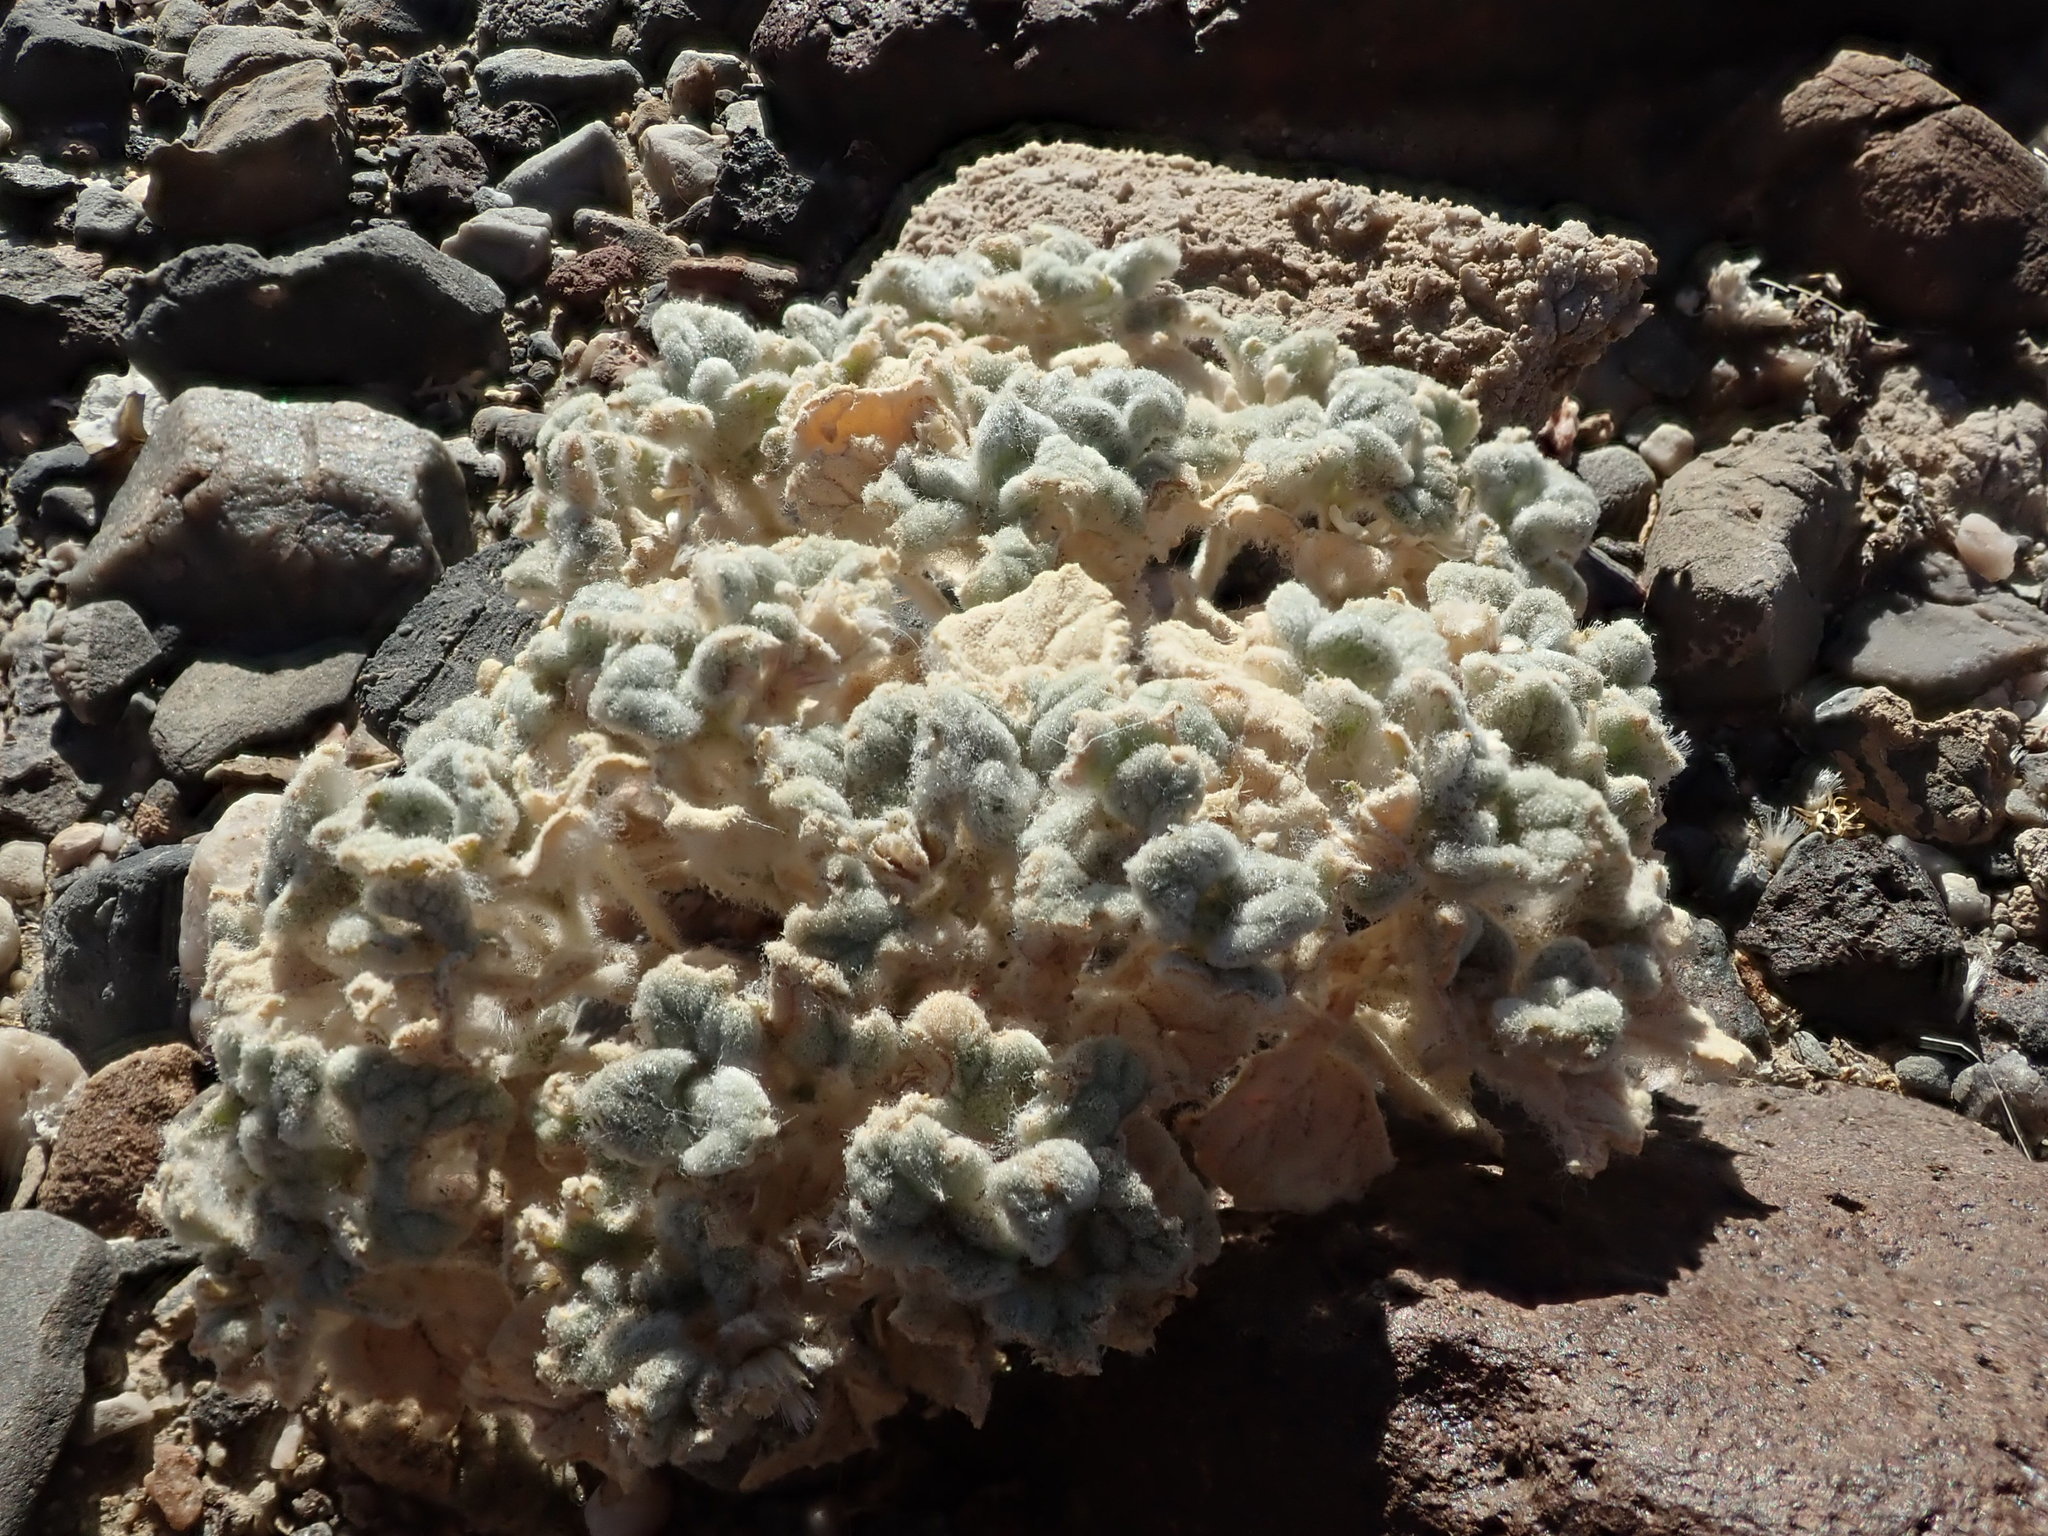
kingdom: Plantae
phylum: Tracheophyta
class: Magnoliopsida
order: Asterales
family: Asteraceae
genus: Psathyrotes
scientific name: Psathyrotes ramosissima
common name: Turtleback
